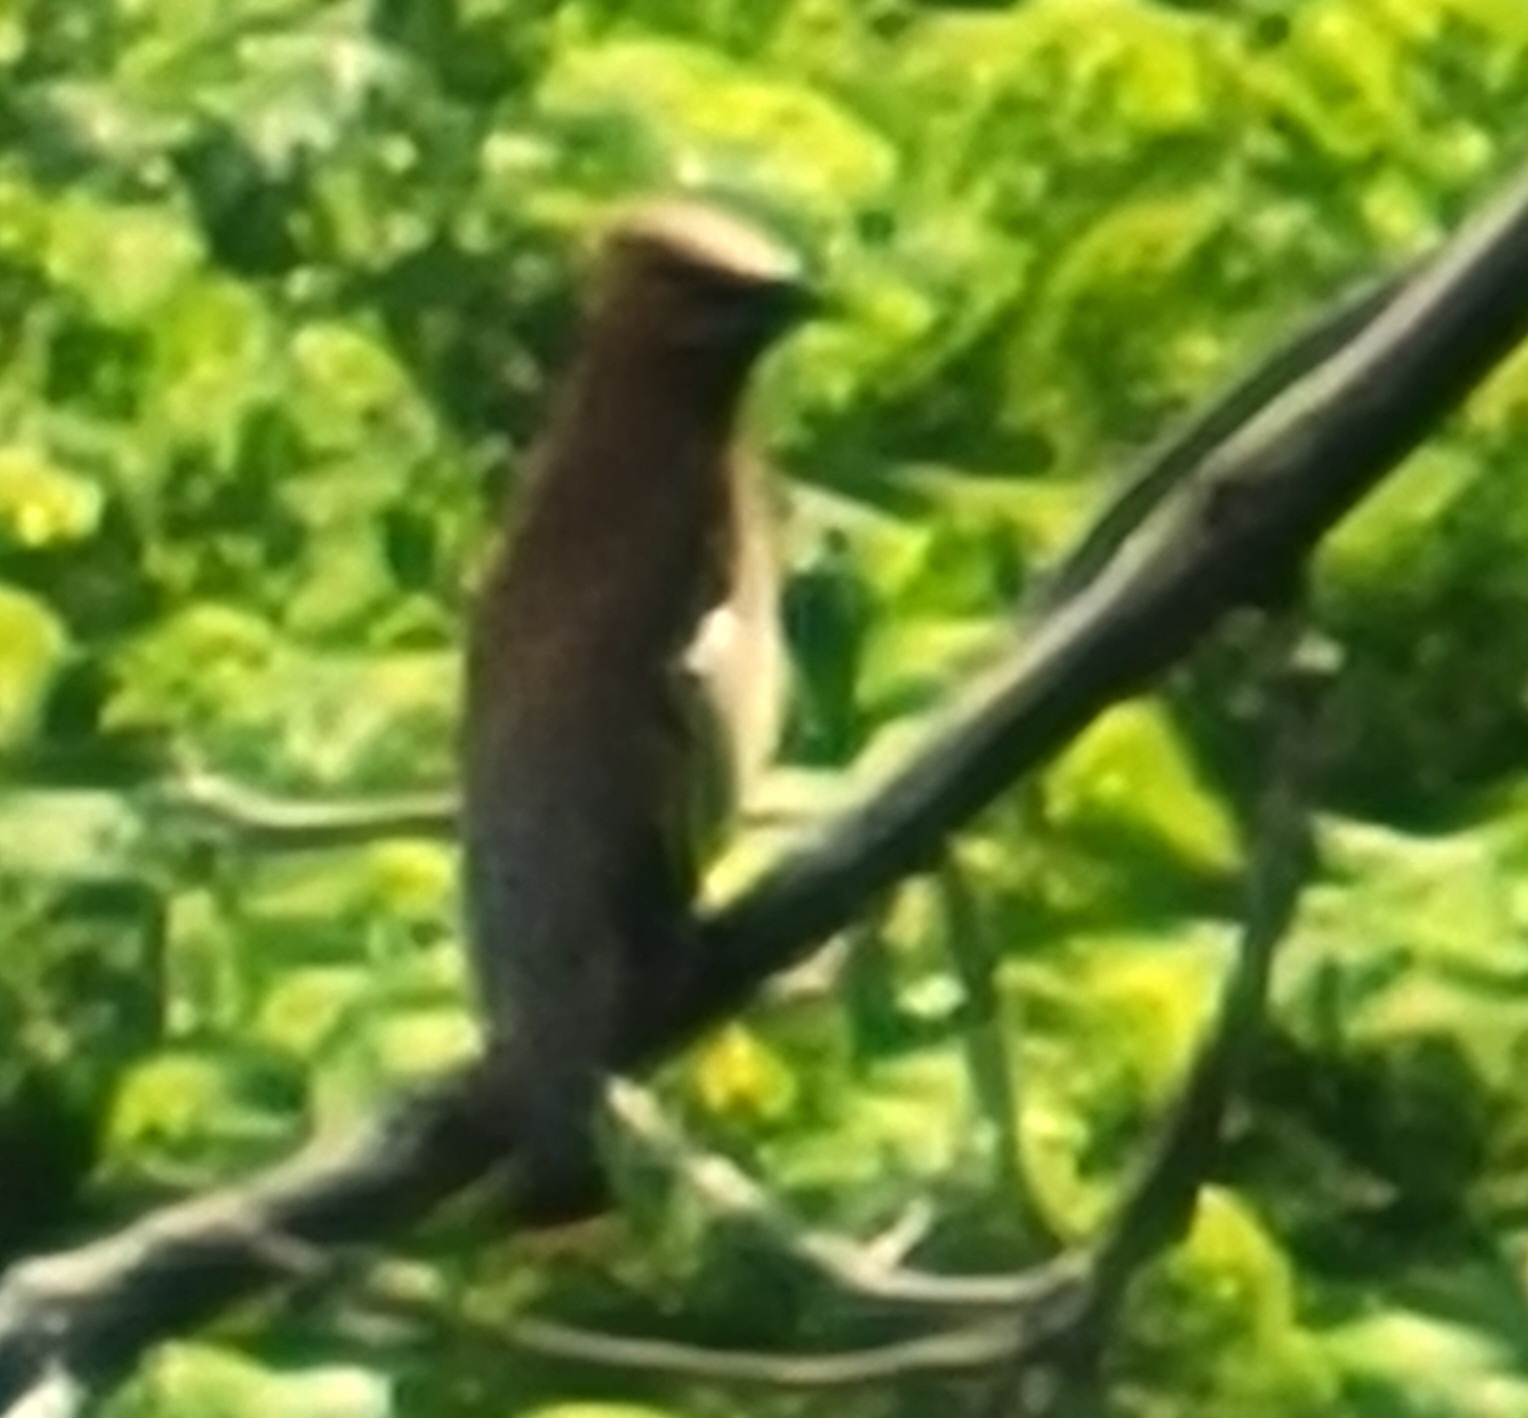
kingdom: Animalia
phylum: Chordata
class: Aves
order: Passeriformes
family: Bombycillidae
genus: Bombycilla
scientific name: Bombycilla cedrorum
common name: Cedar waxwing
